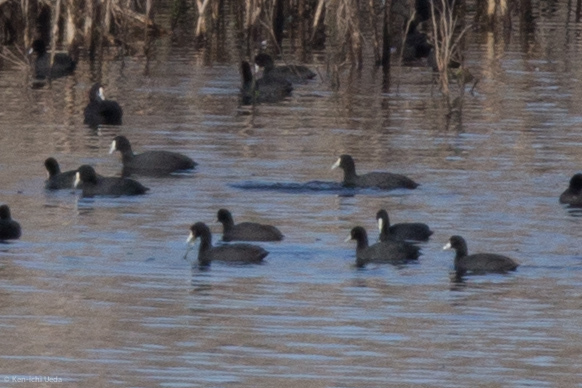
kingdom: Animalia
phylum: Chordata
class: Aves
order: Gruiformes
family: Rallidae
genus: Fulica
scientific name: Fulica atra
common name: Eurasian coot
